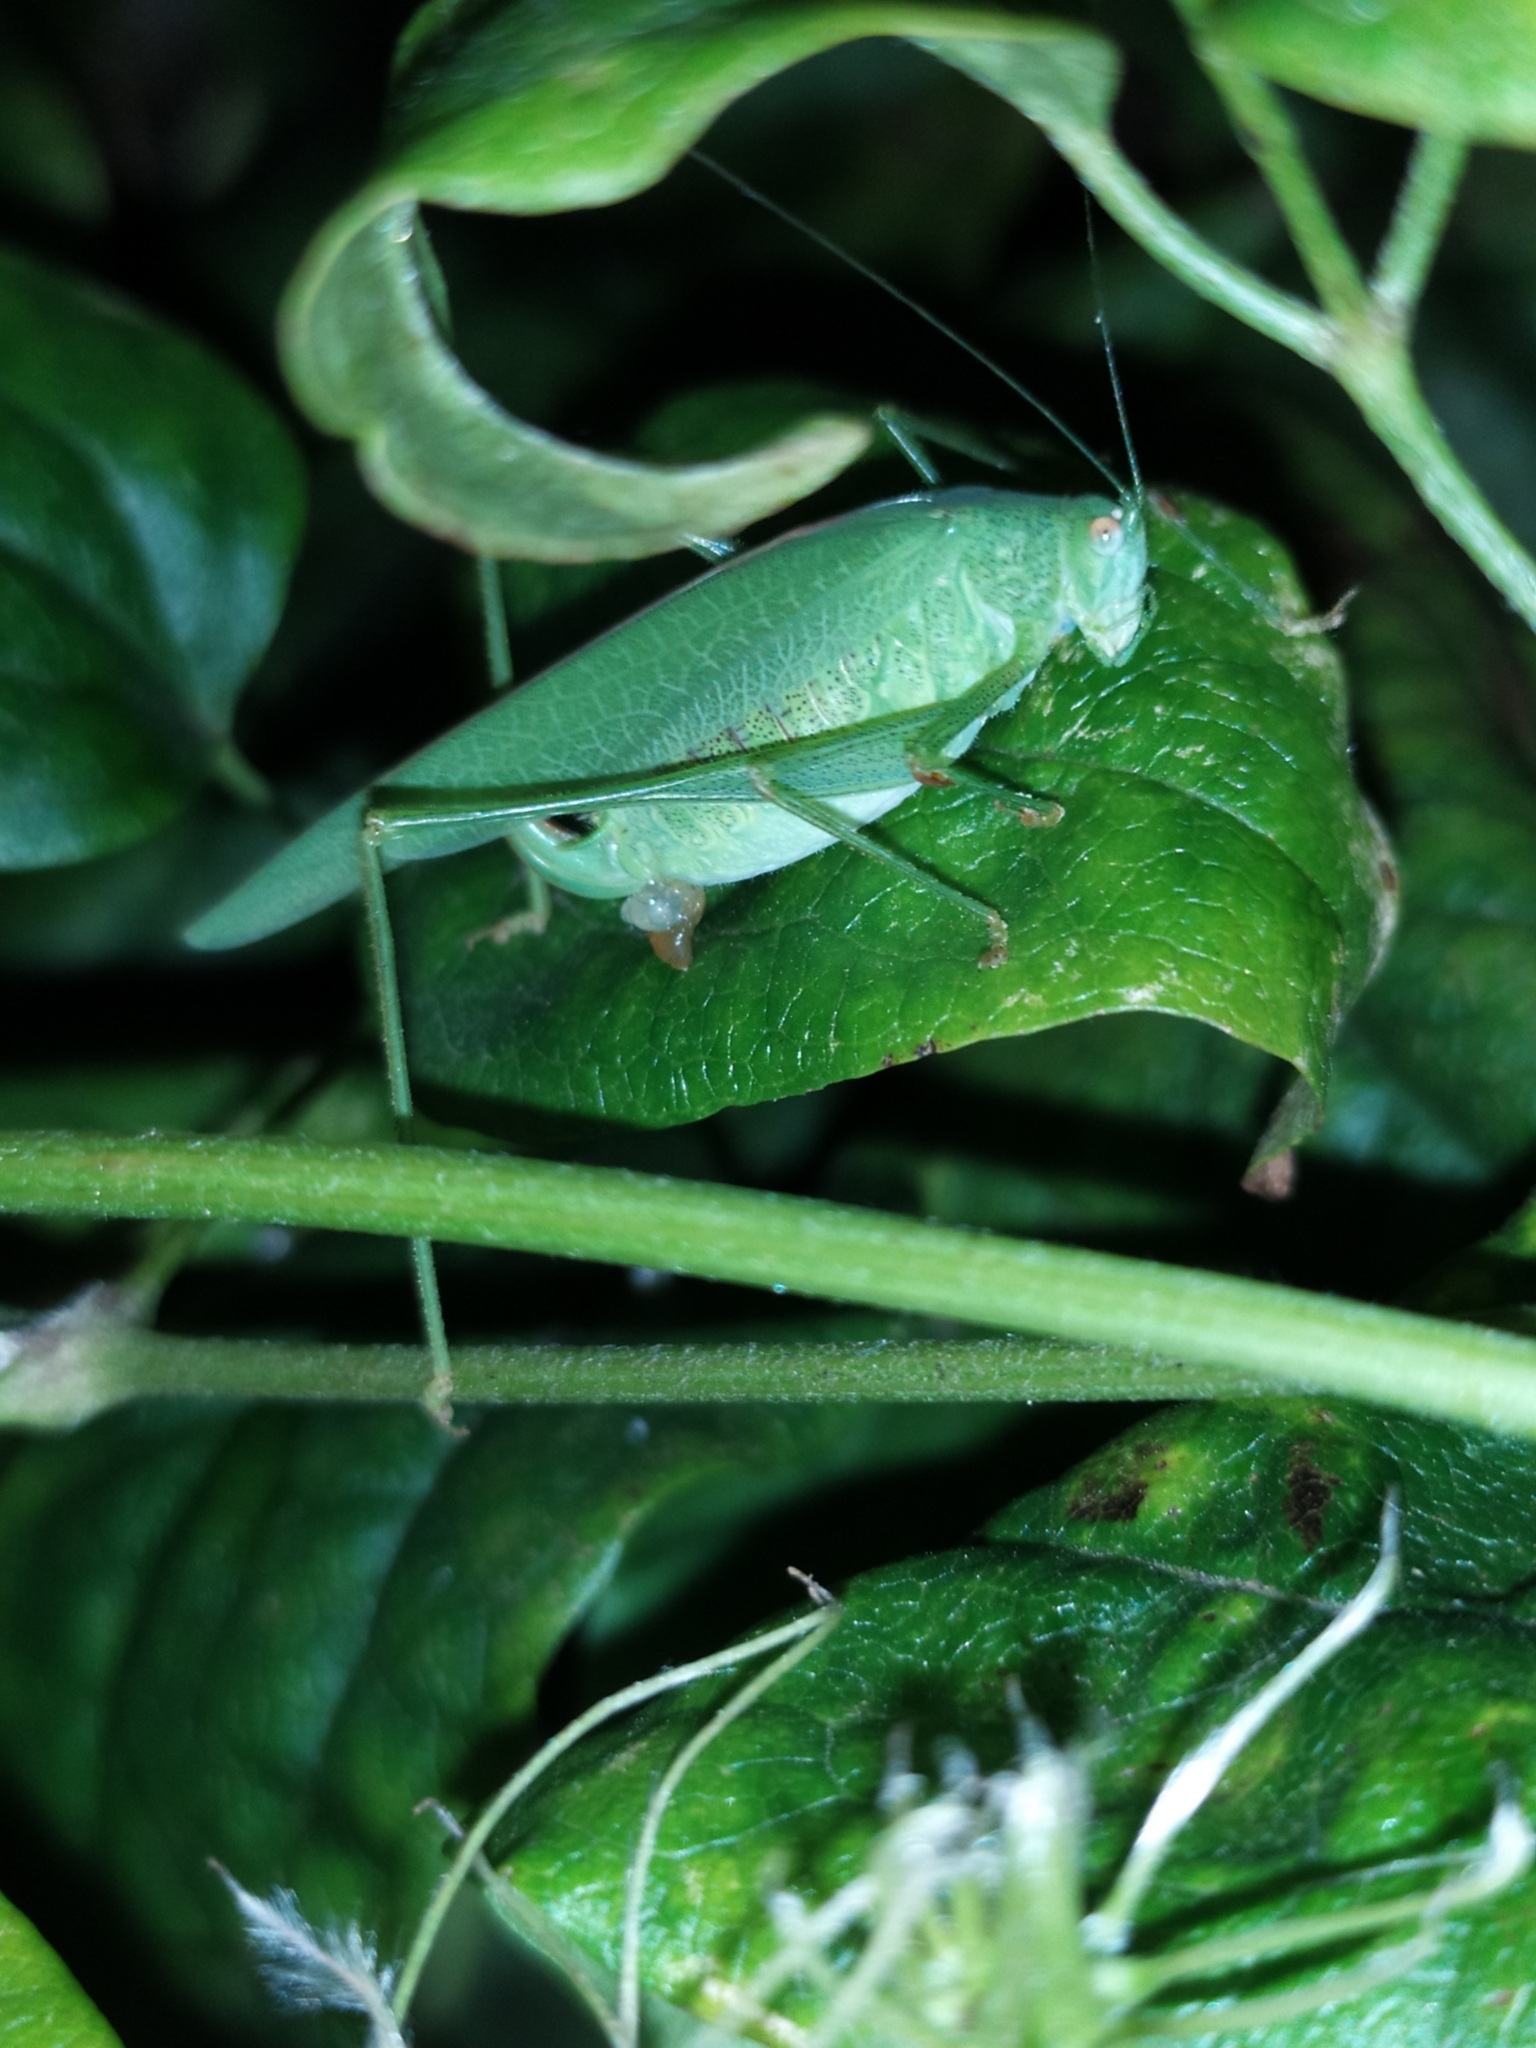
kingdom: Animalia
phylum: Arthropoda
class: Insecta
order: Orthoptera
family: Tettigoniidae
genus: Phaneroptera
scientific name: Phaneroptera nana
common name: Southern sickle bush-cricket
